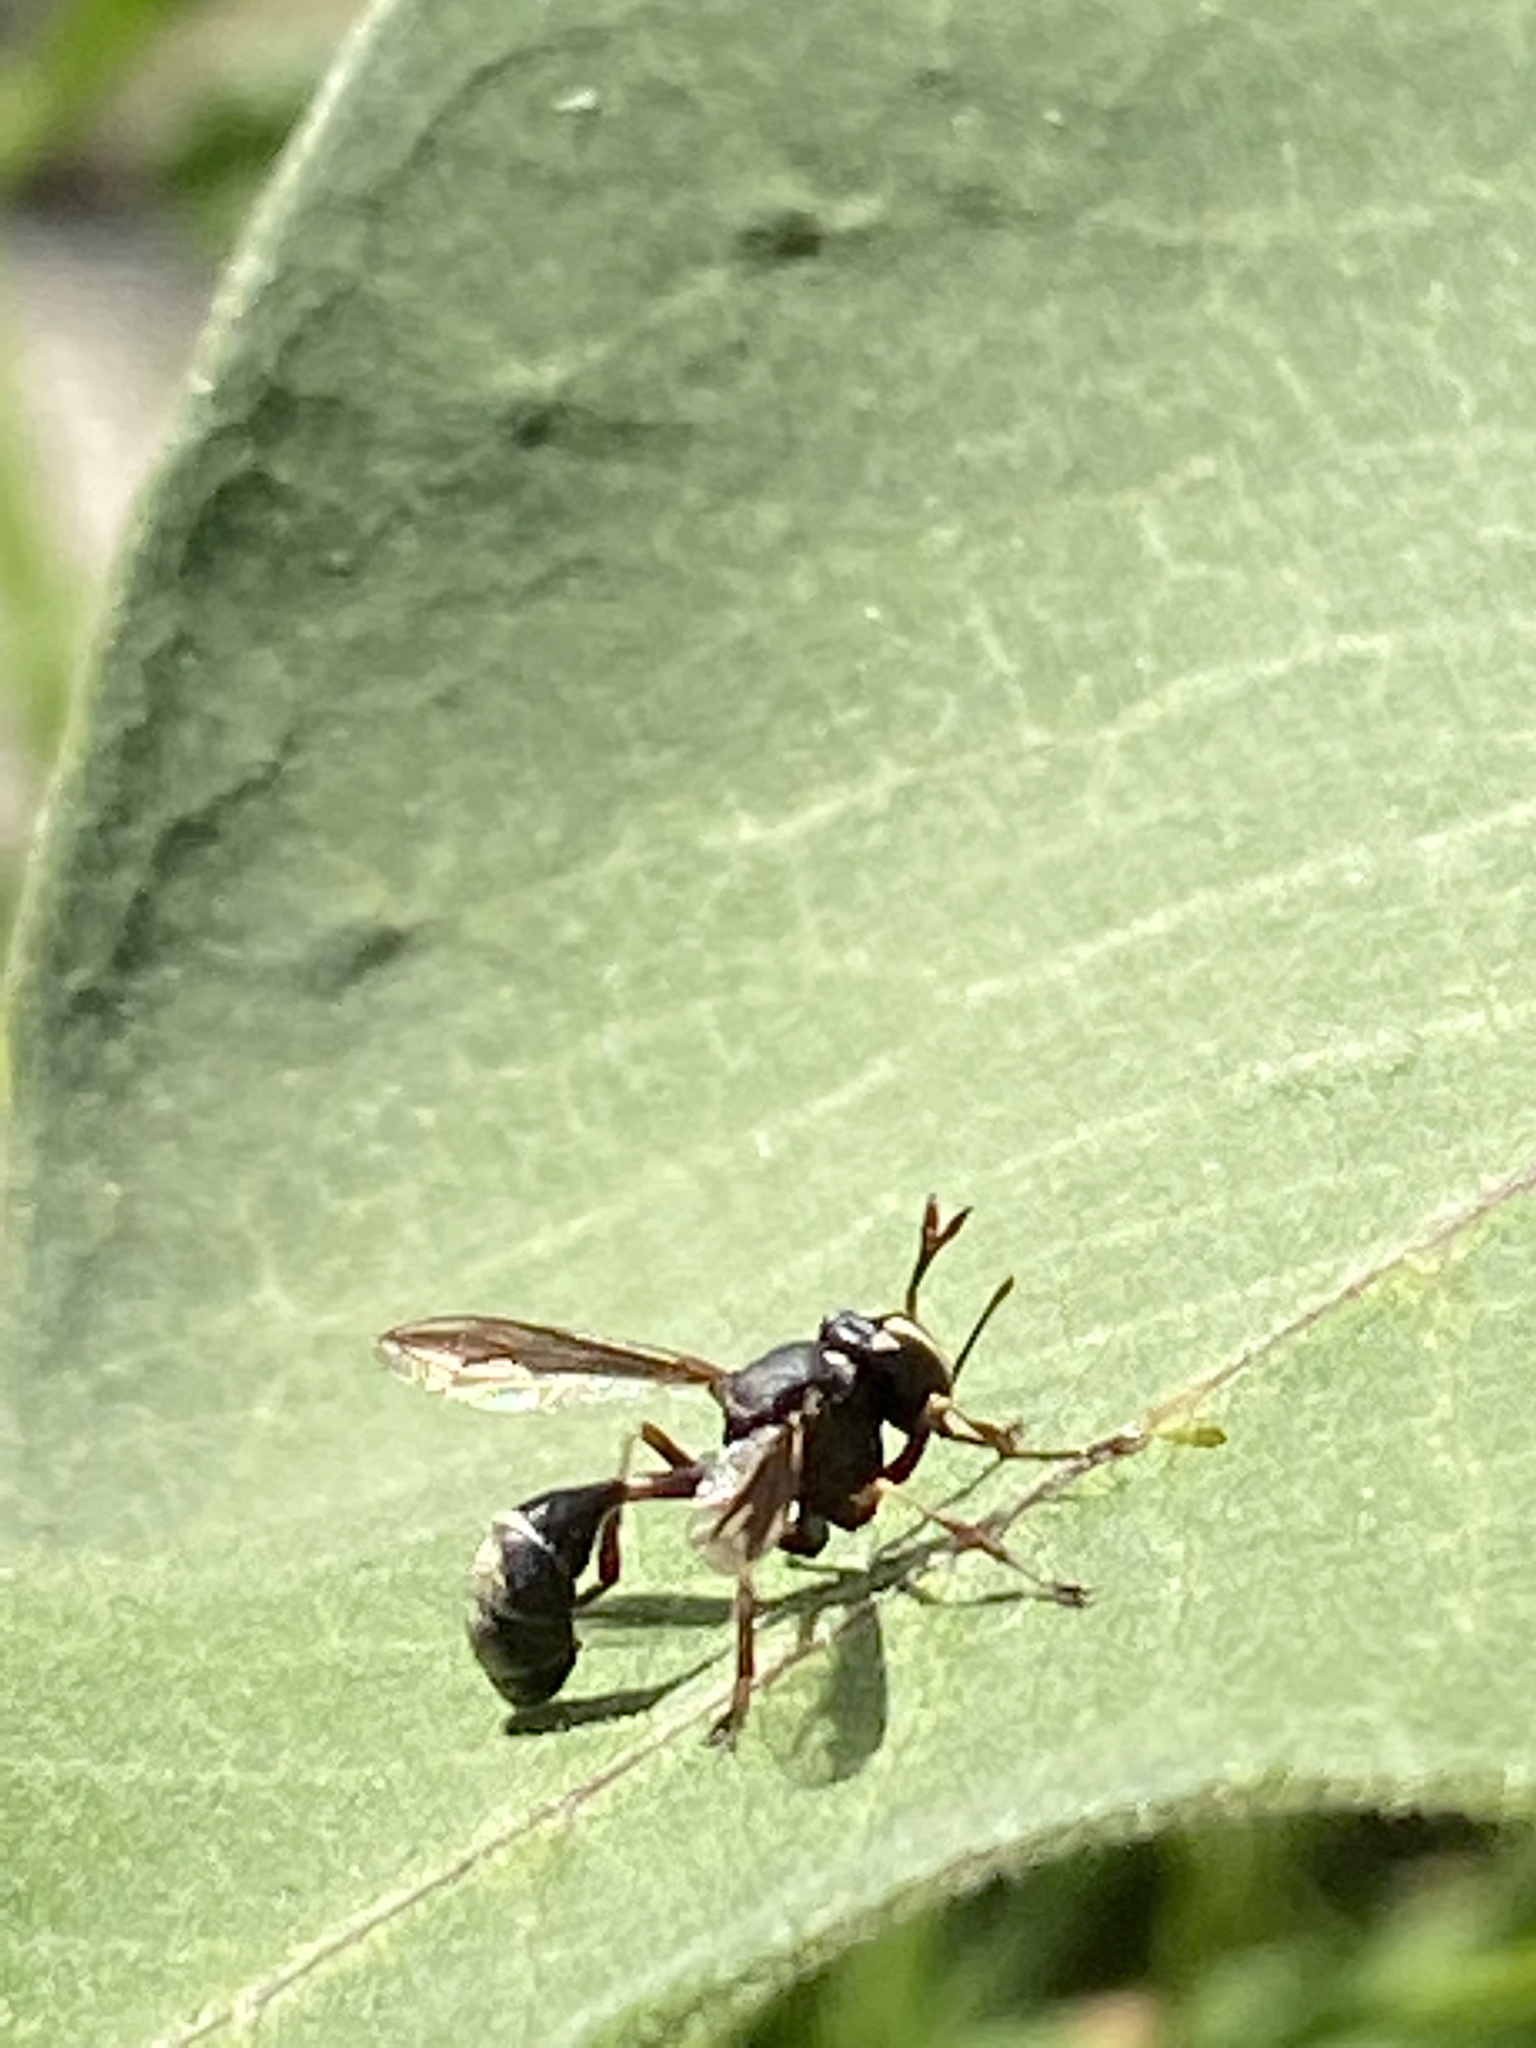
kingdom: Animalia
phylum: Arthropoda
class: Insecta
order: Diptera
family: Conopidae
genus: Physocephala
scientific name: Physocephala furcillata
